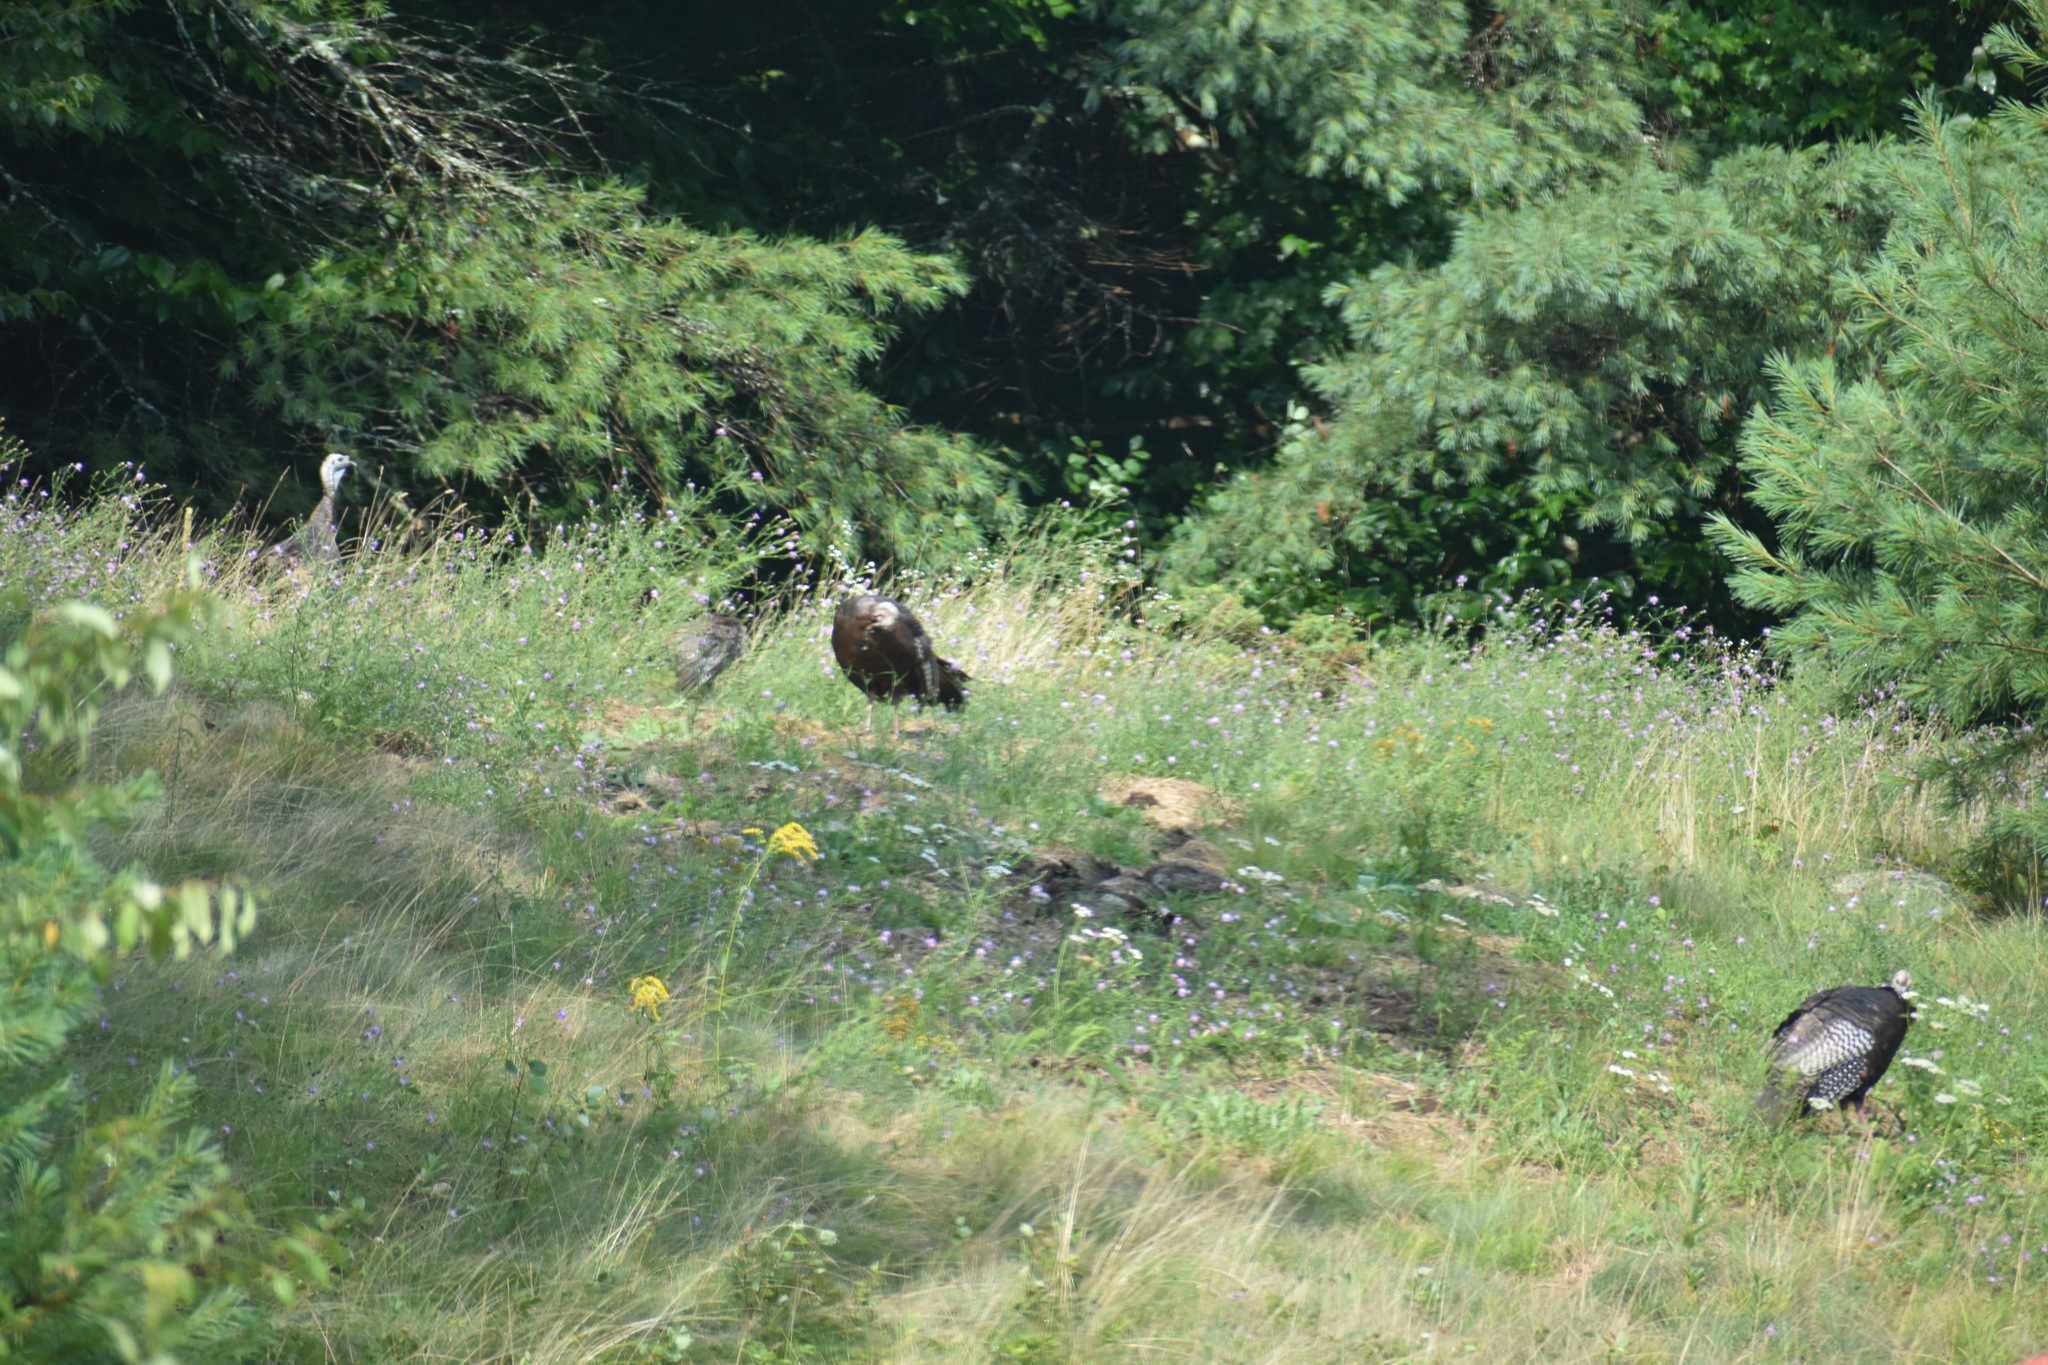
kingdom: Animalia
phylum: Chordata
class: Aves
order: Galliformes
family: Phasianidae
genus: Meleagris
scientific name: Meleagris gallopavo
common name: Wild turkey
